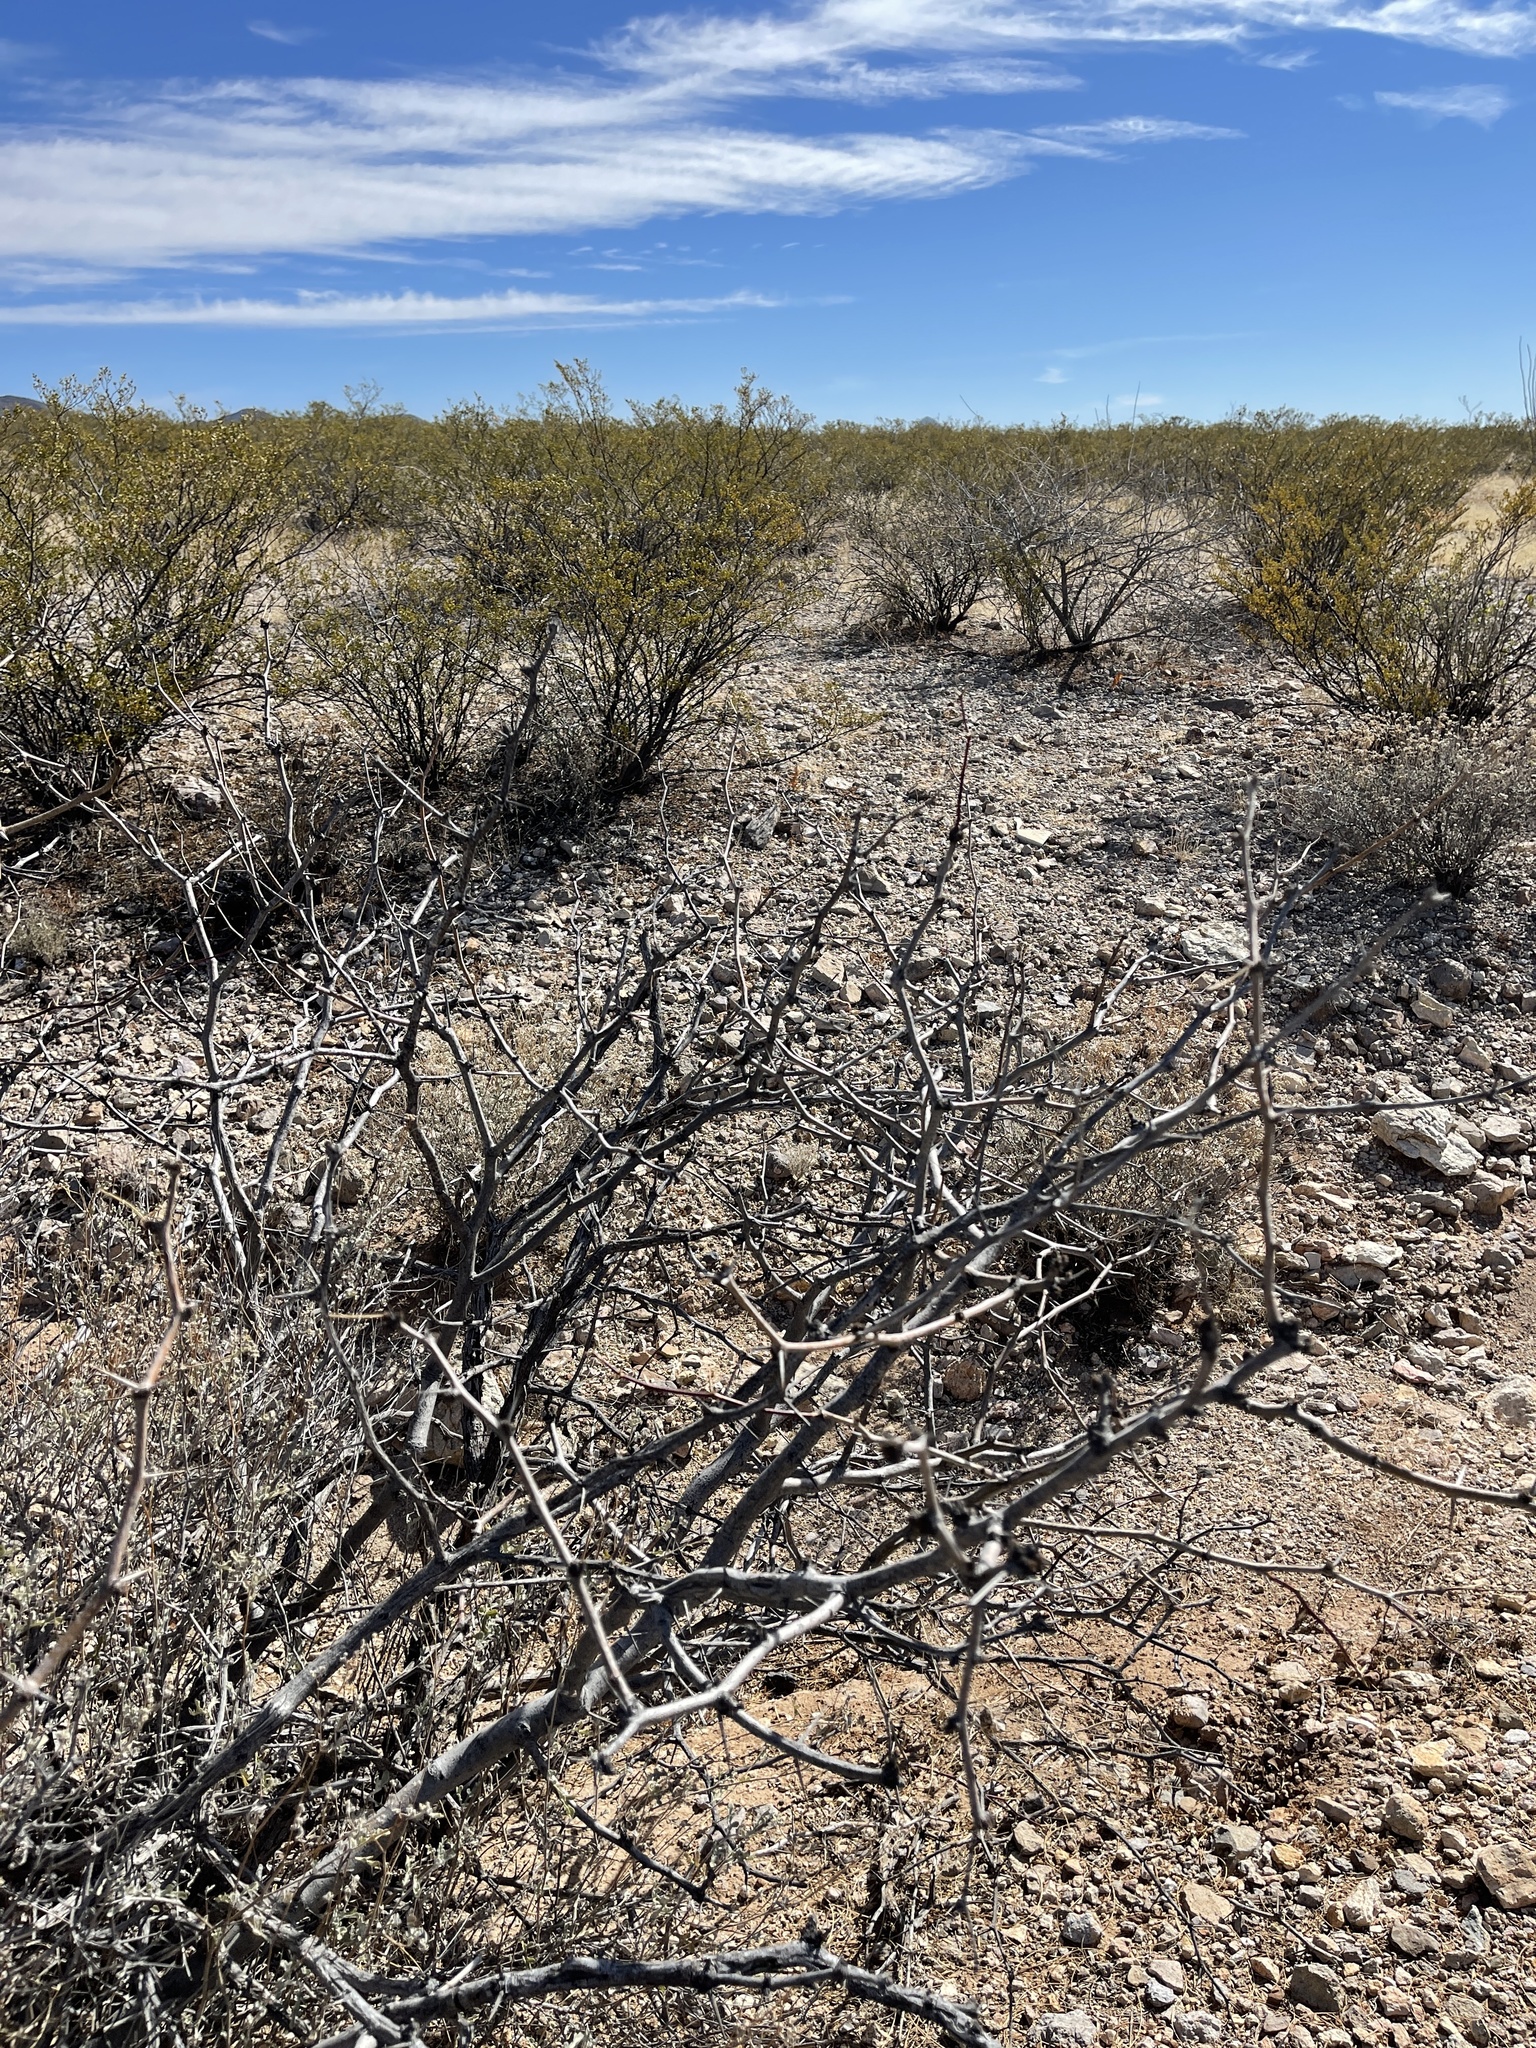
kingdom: Plantae
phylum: Tracheophyta
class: Magnoliopsida
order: Fabales
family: Fabaceae
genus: Prosopis
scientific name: Prosopis glandulosa
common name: Honey mesquite
